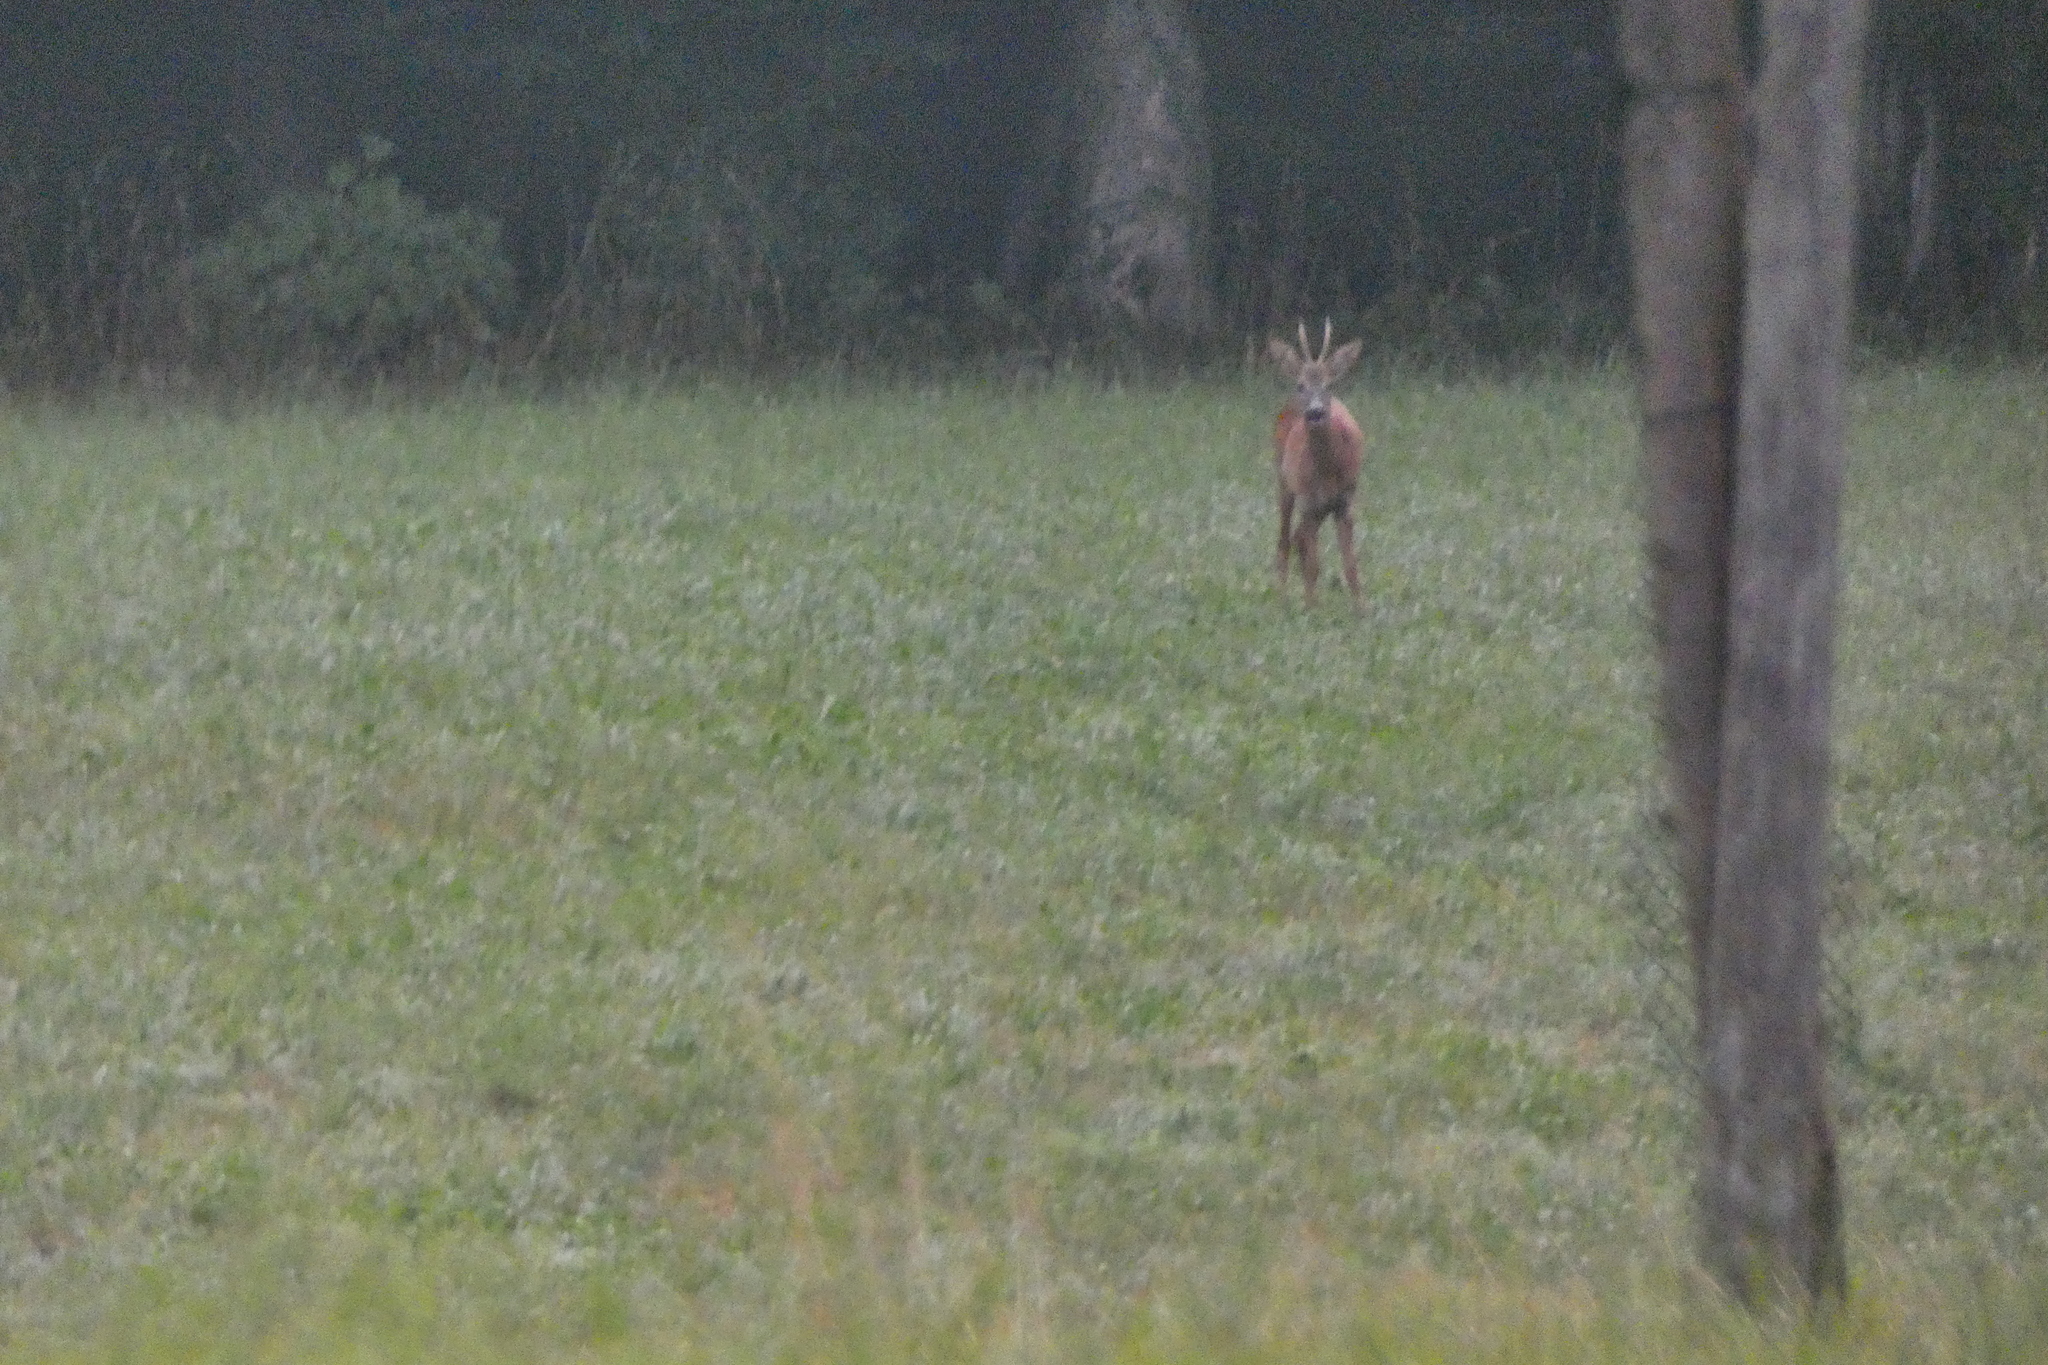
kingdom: Animalia
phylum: Chordata
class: Mammalia
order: Artiodactyla
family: Cervidae
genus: Capreolus
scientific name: Capreolus capreolus
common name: Western roe deer
